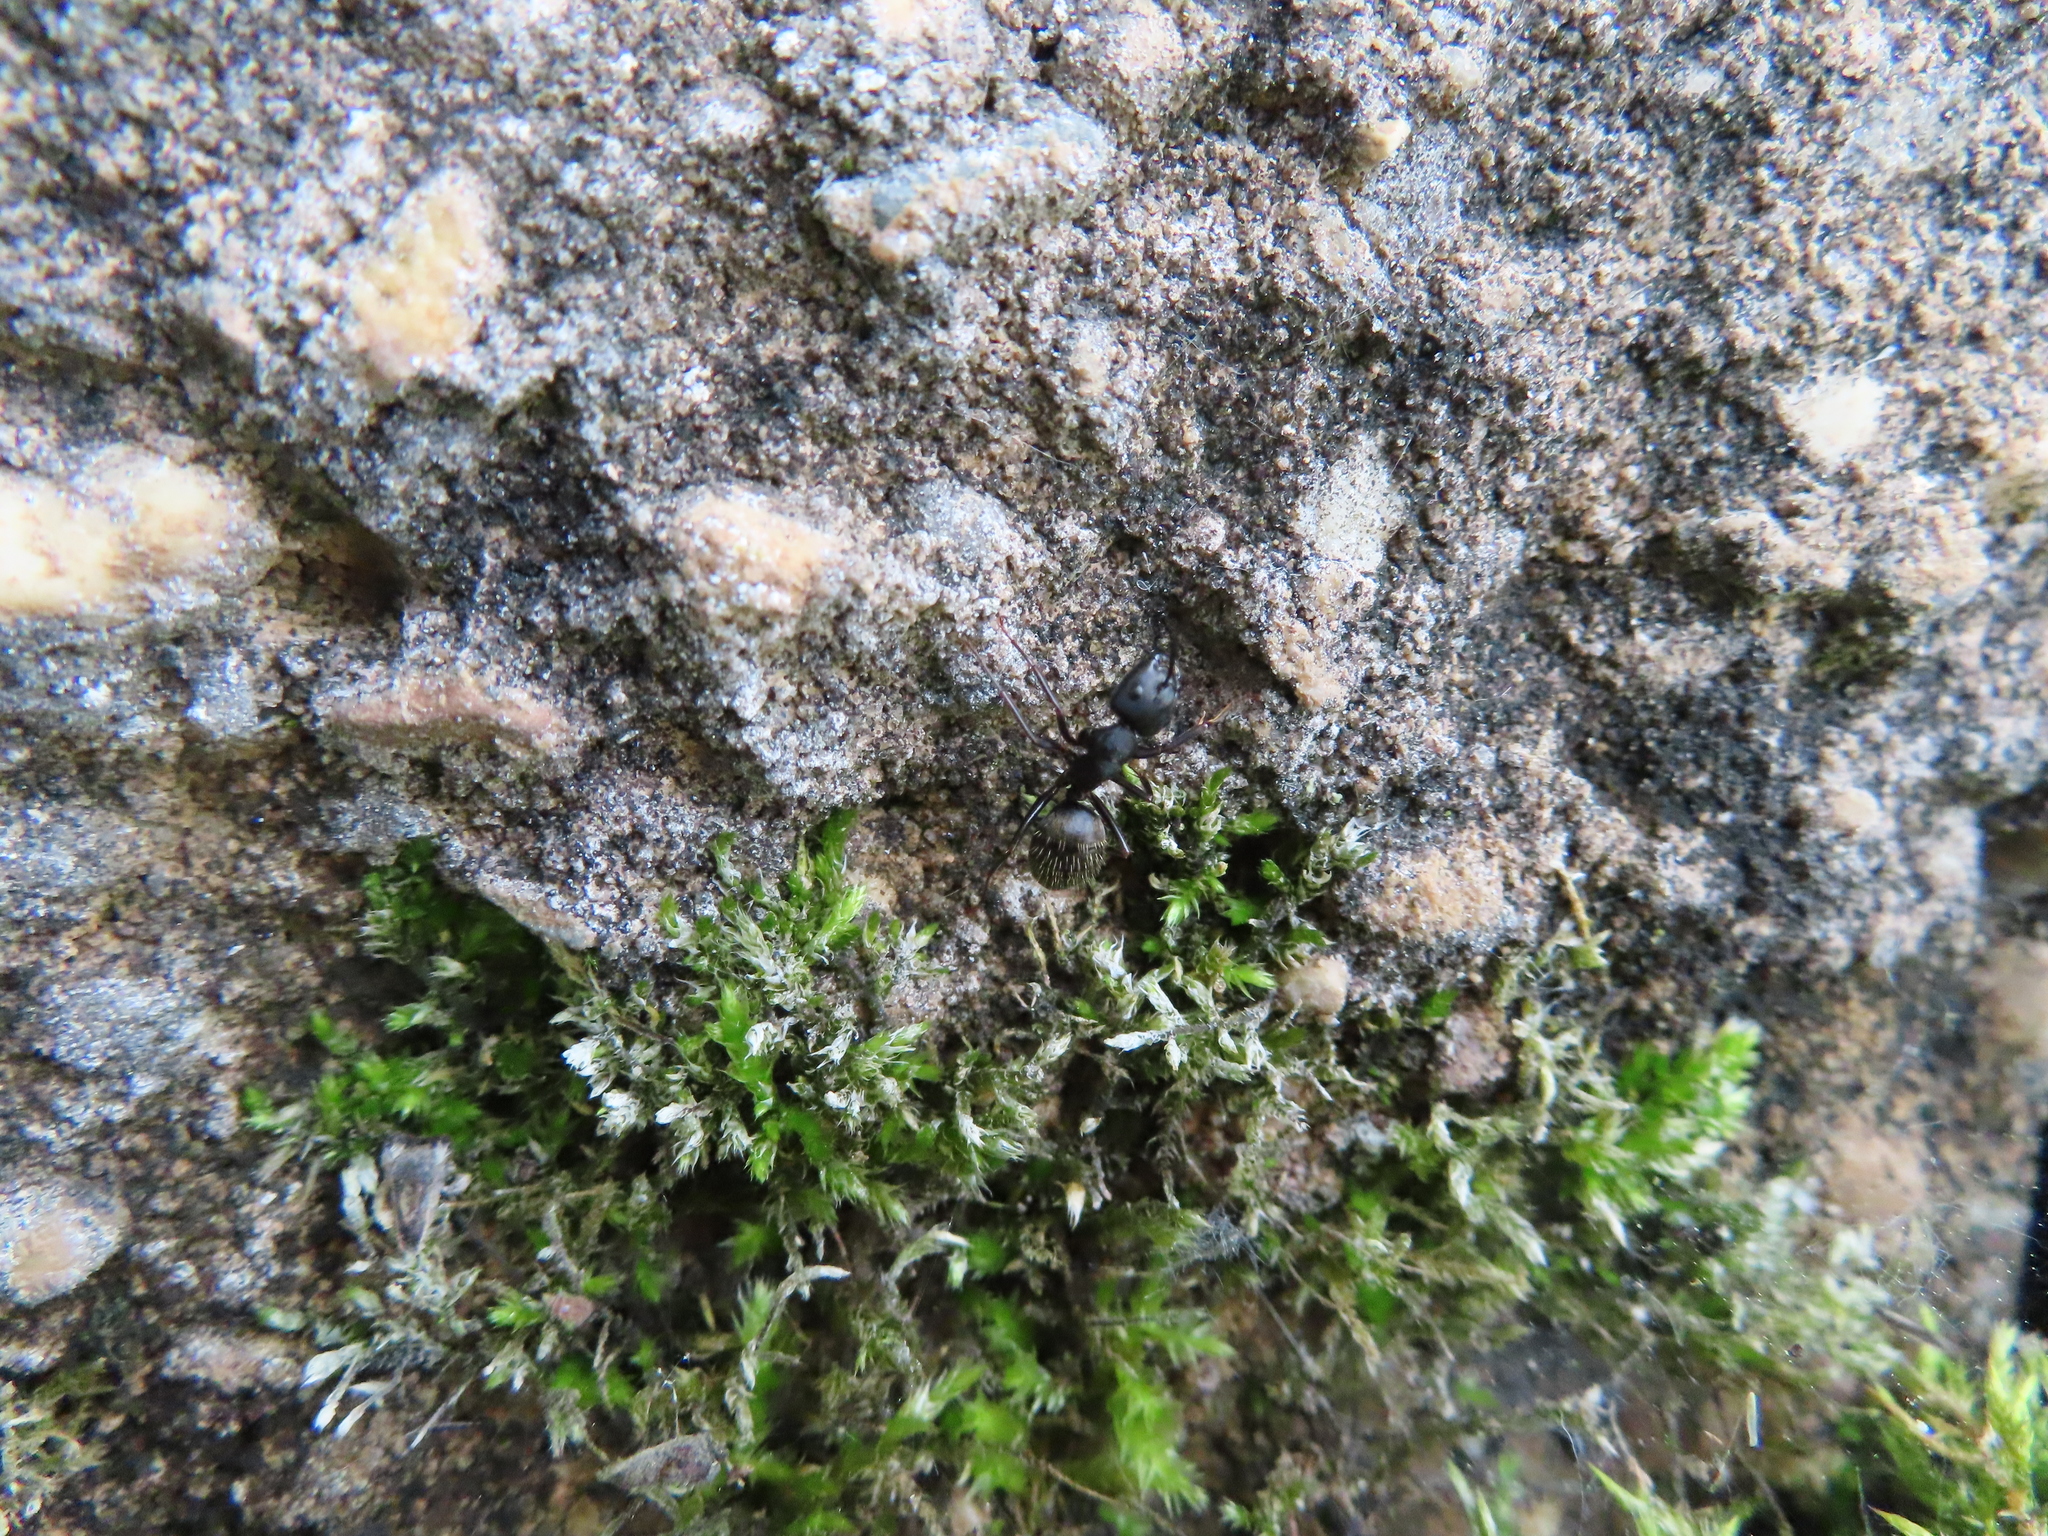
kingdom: Animalia
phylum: Arthropoda
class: Insecta
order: Hymenoptera
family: Formicidae
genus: Camponotus
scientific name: Camponotus pennsylvanicus
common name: Black carpenter ant
